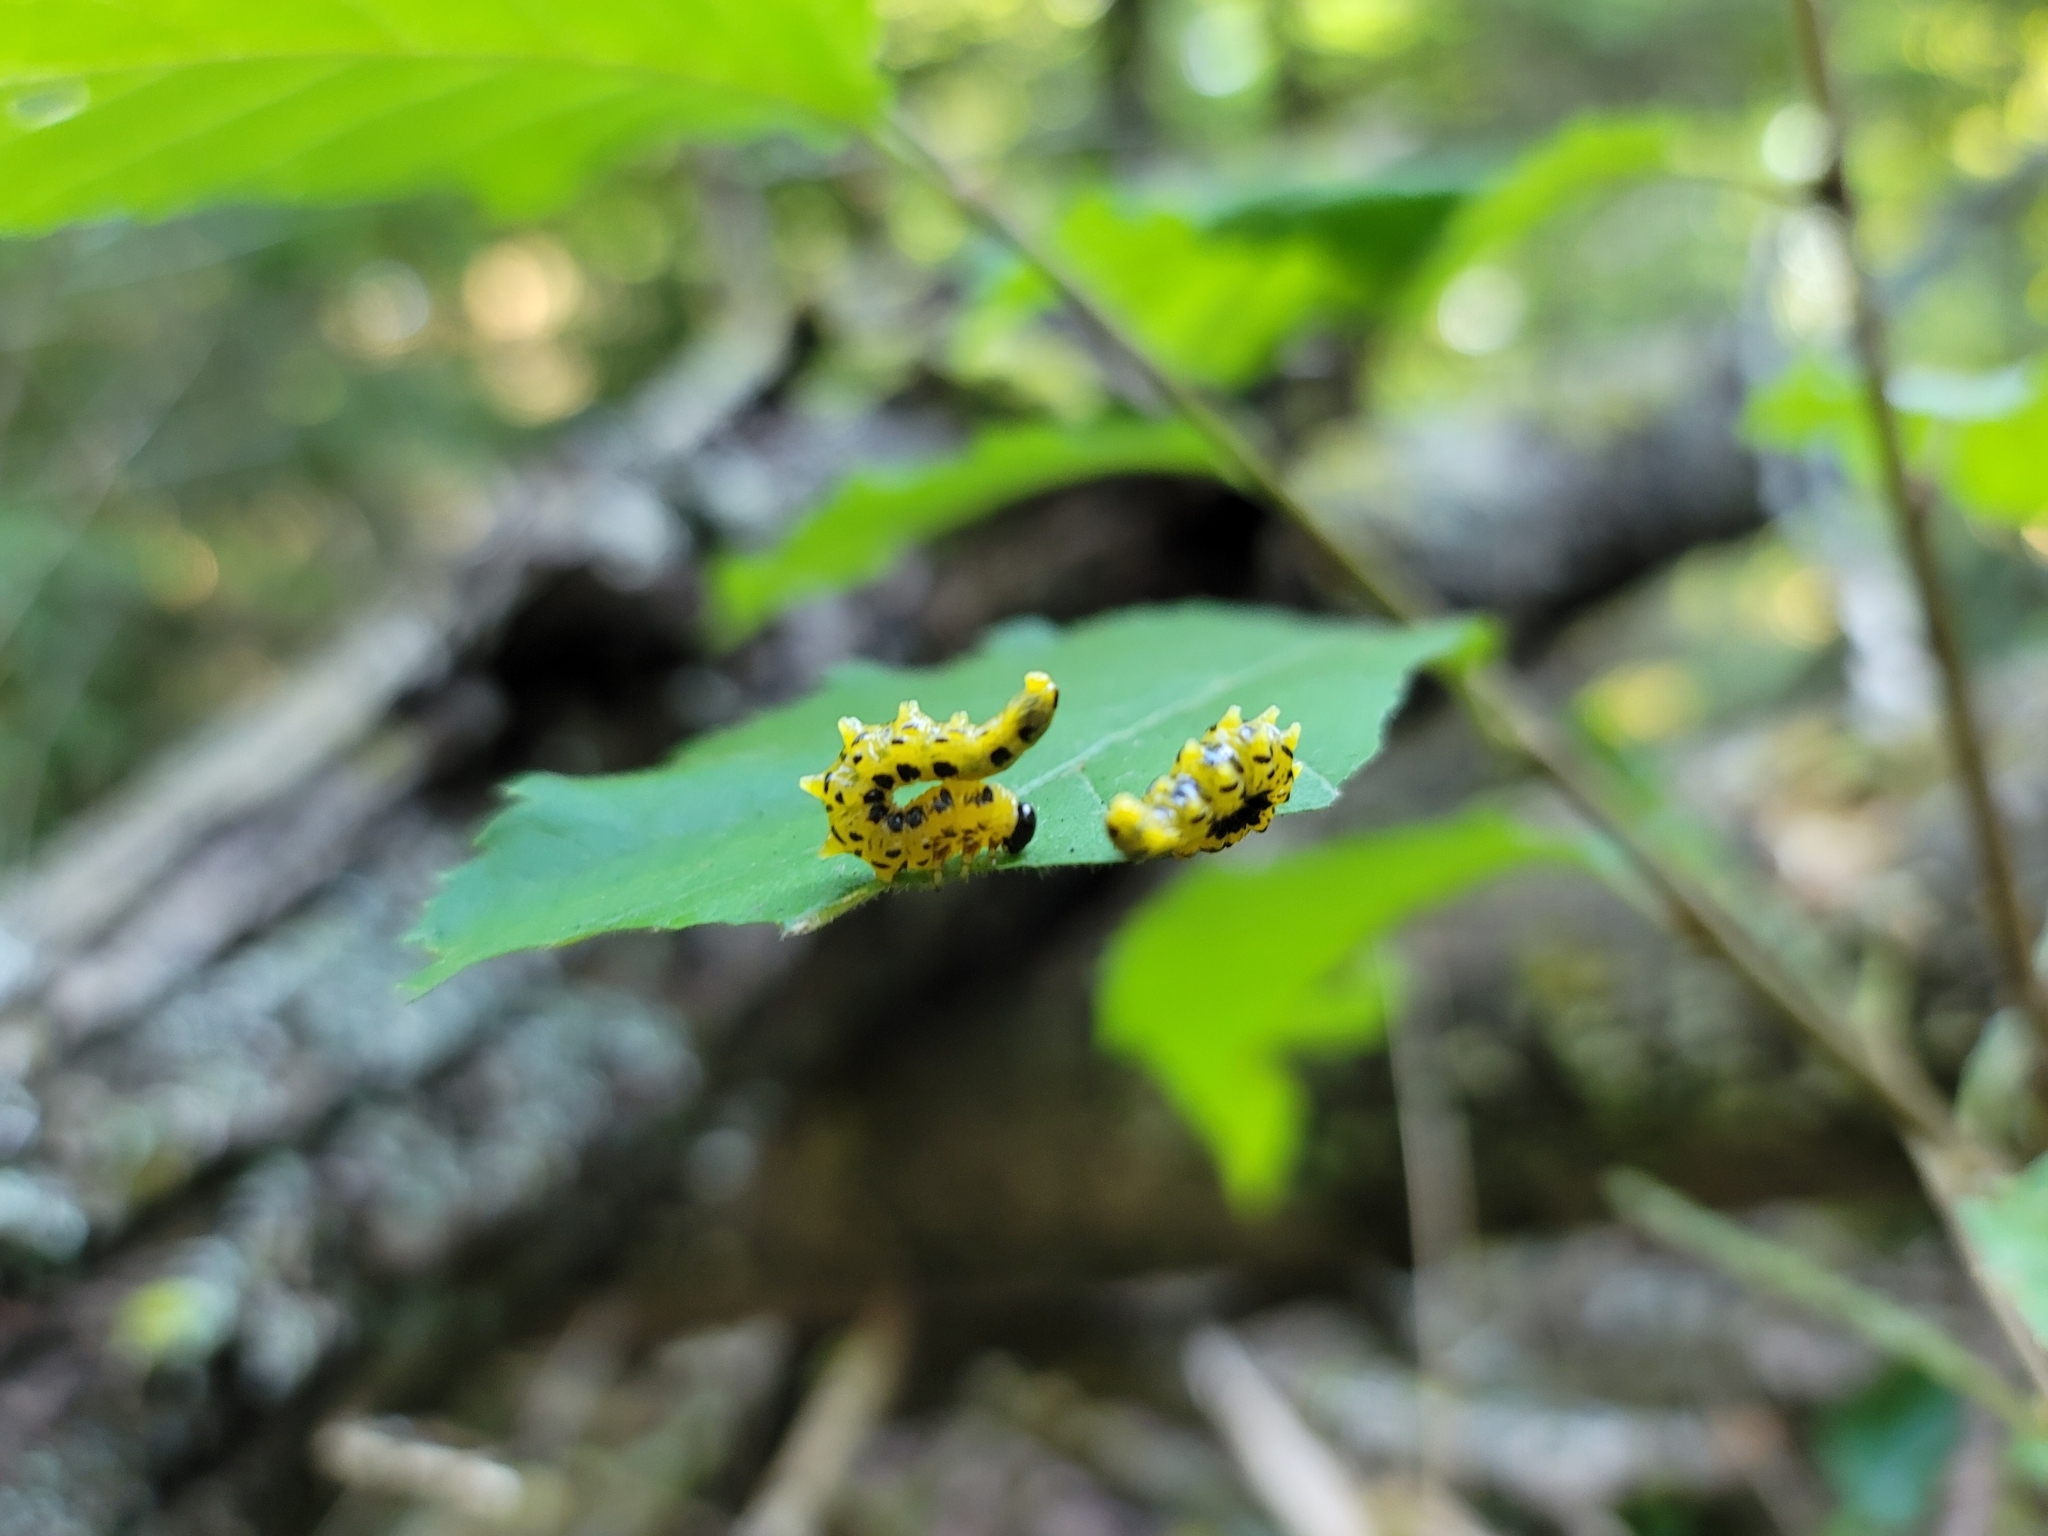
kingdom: Animalia
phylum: Arthropoda
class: Insecta
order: Hymenoptera
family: Tenthredinidae
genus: Nematus
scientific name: Nematus
